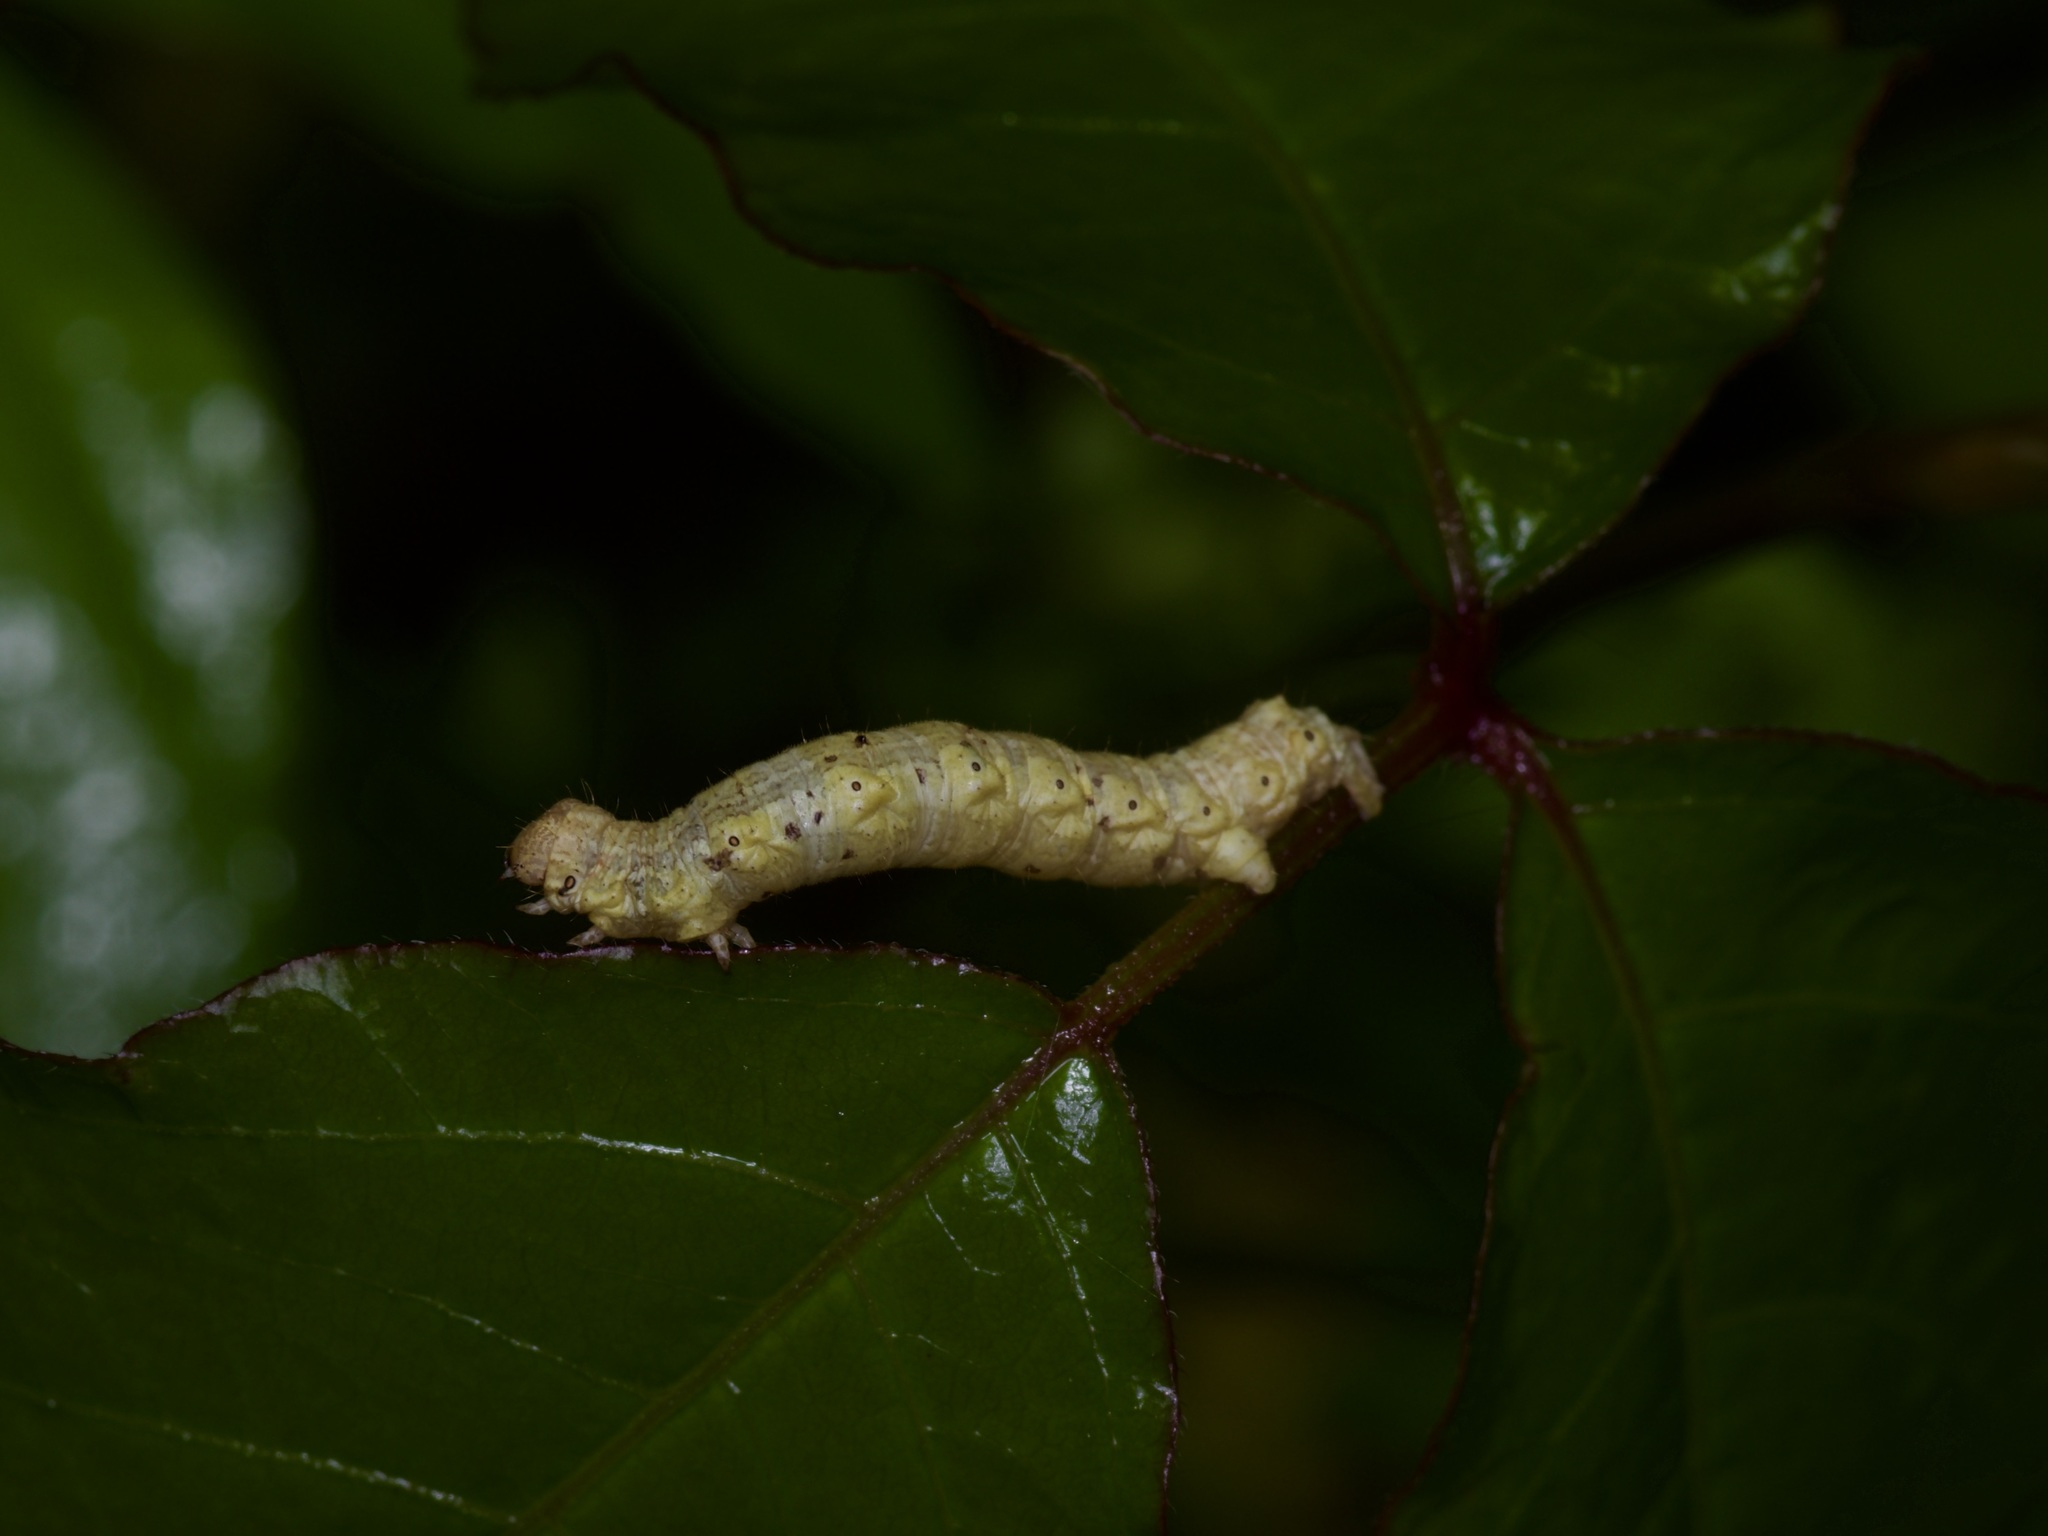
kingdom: Animalia
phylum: Arthropoda
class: Insecta
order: Lepidoptera
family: Geometridae
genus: Phigalia
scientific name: Phigalia strigataria
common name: Small phigalia
